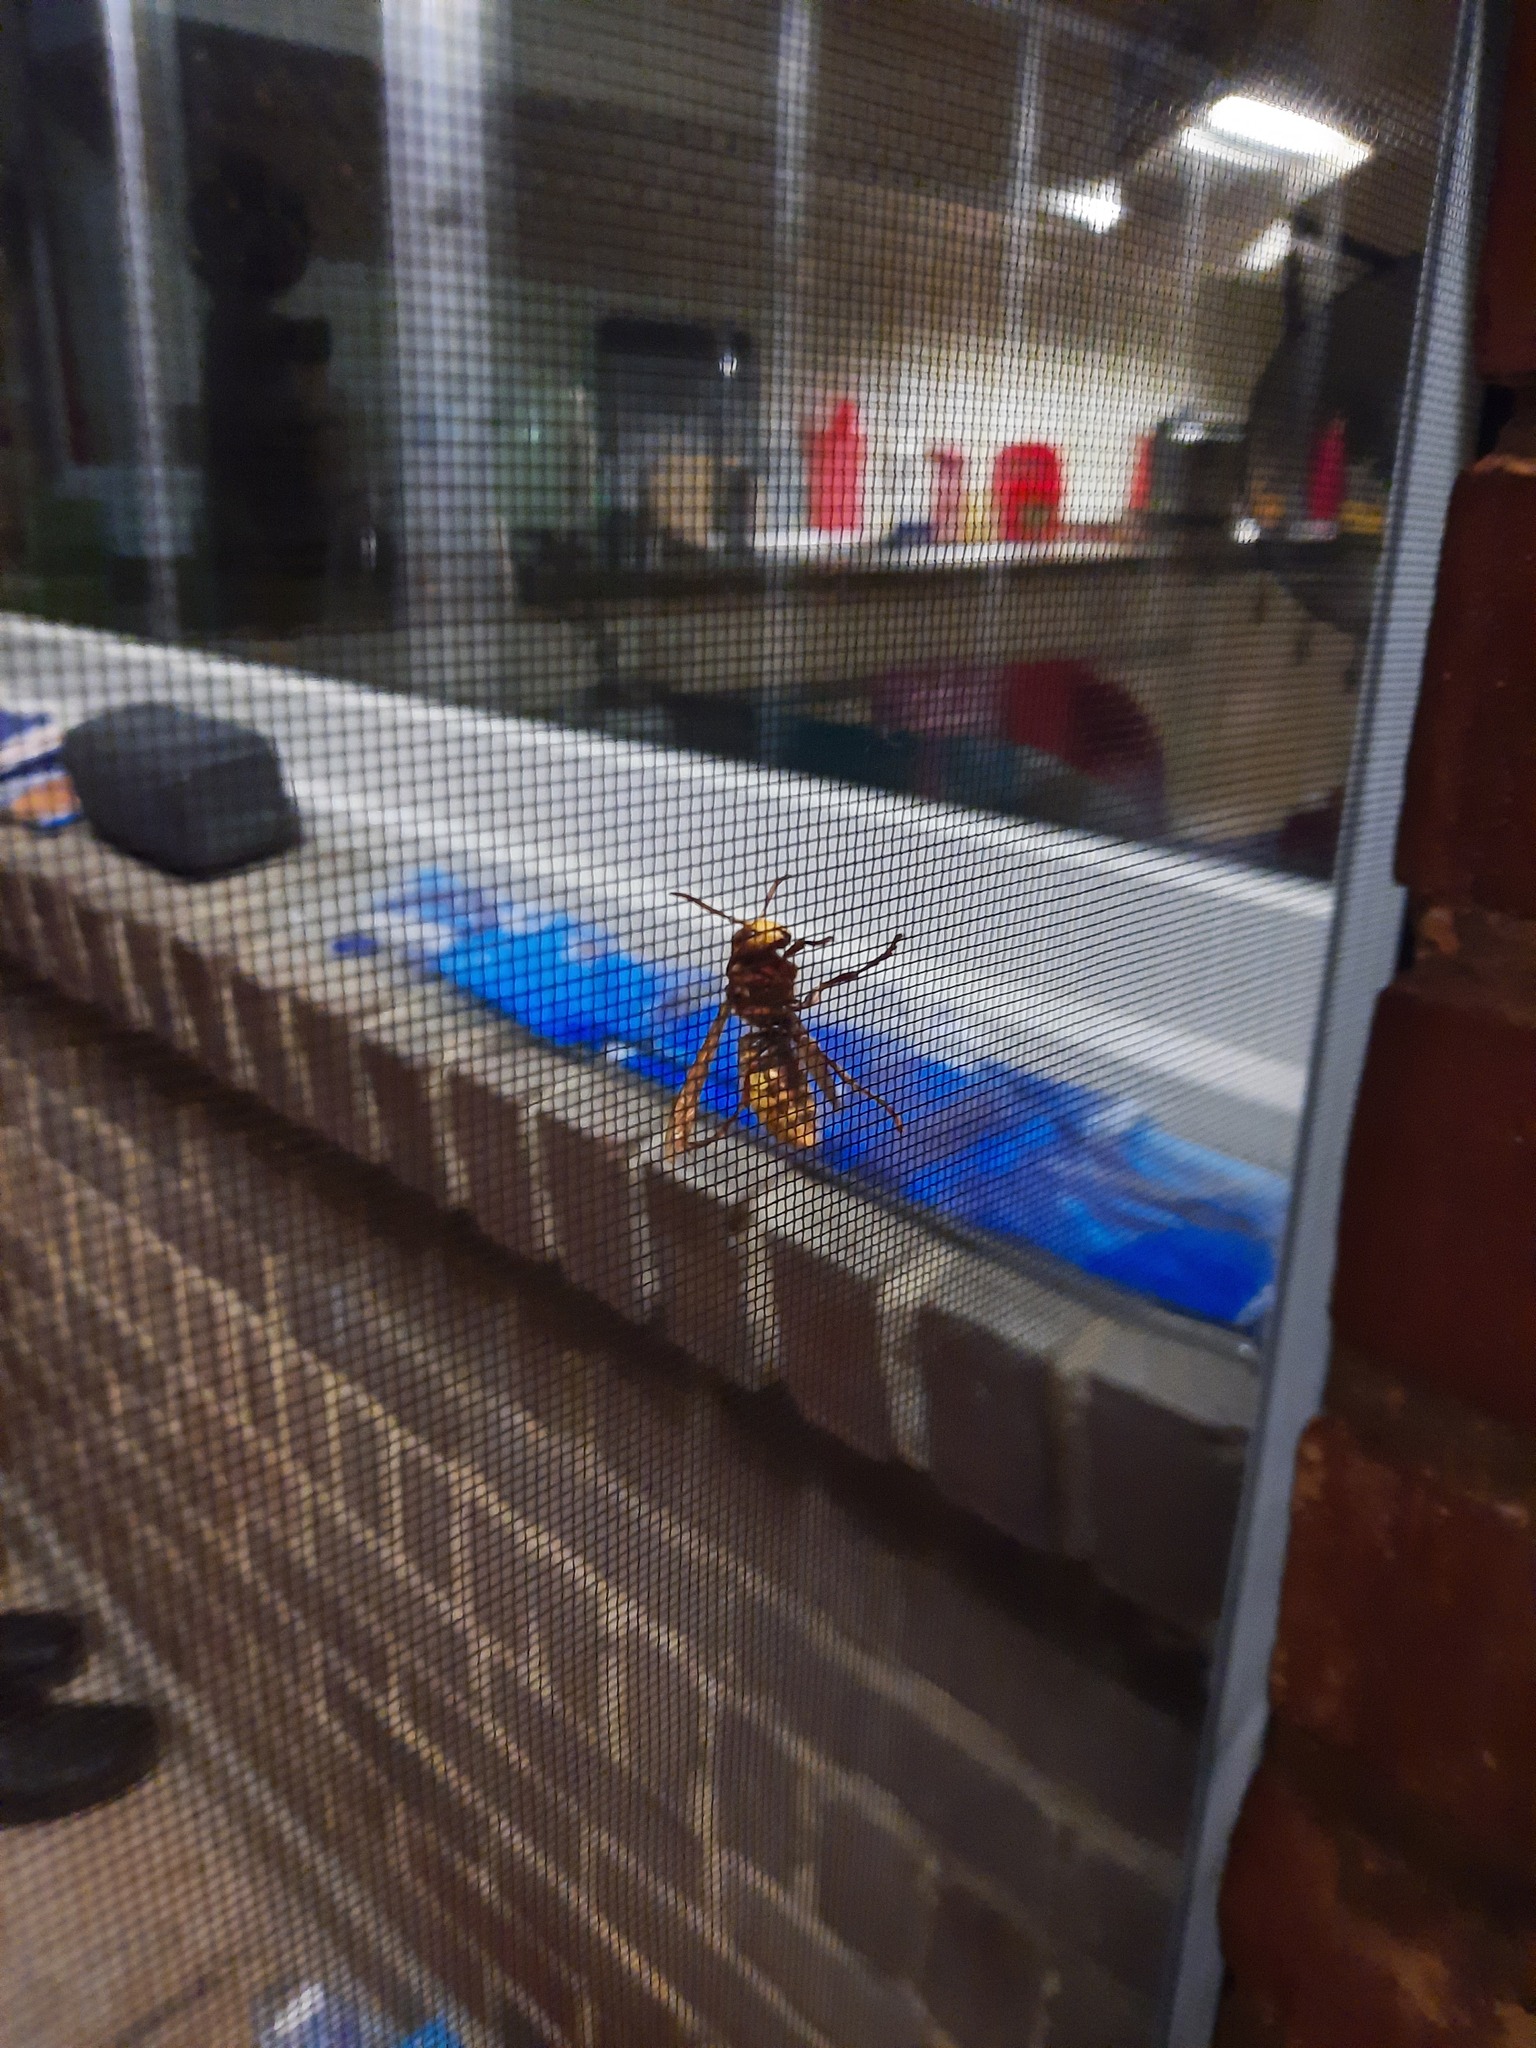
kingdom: Animalia
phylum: Arthropoda
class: Insecta
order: Hymenoptera
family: Vespidae
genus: Vespa
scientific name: Vespa crabro
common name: Hornet
